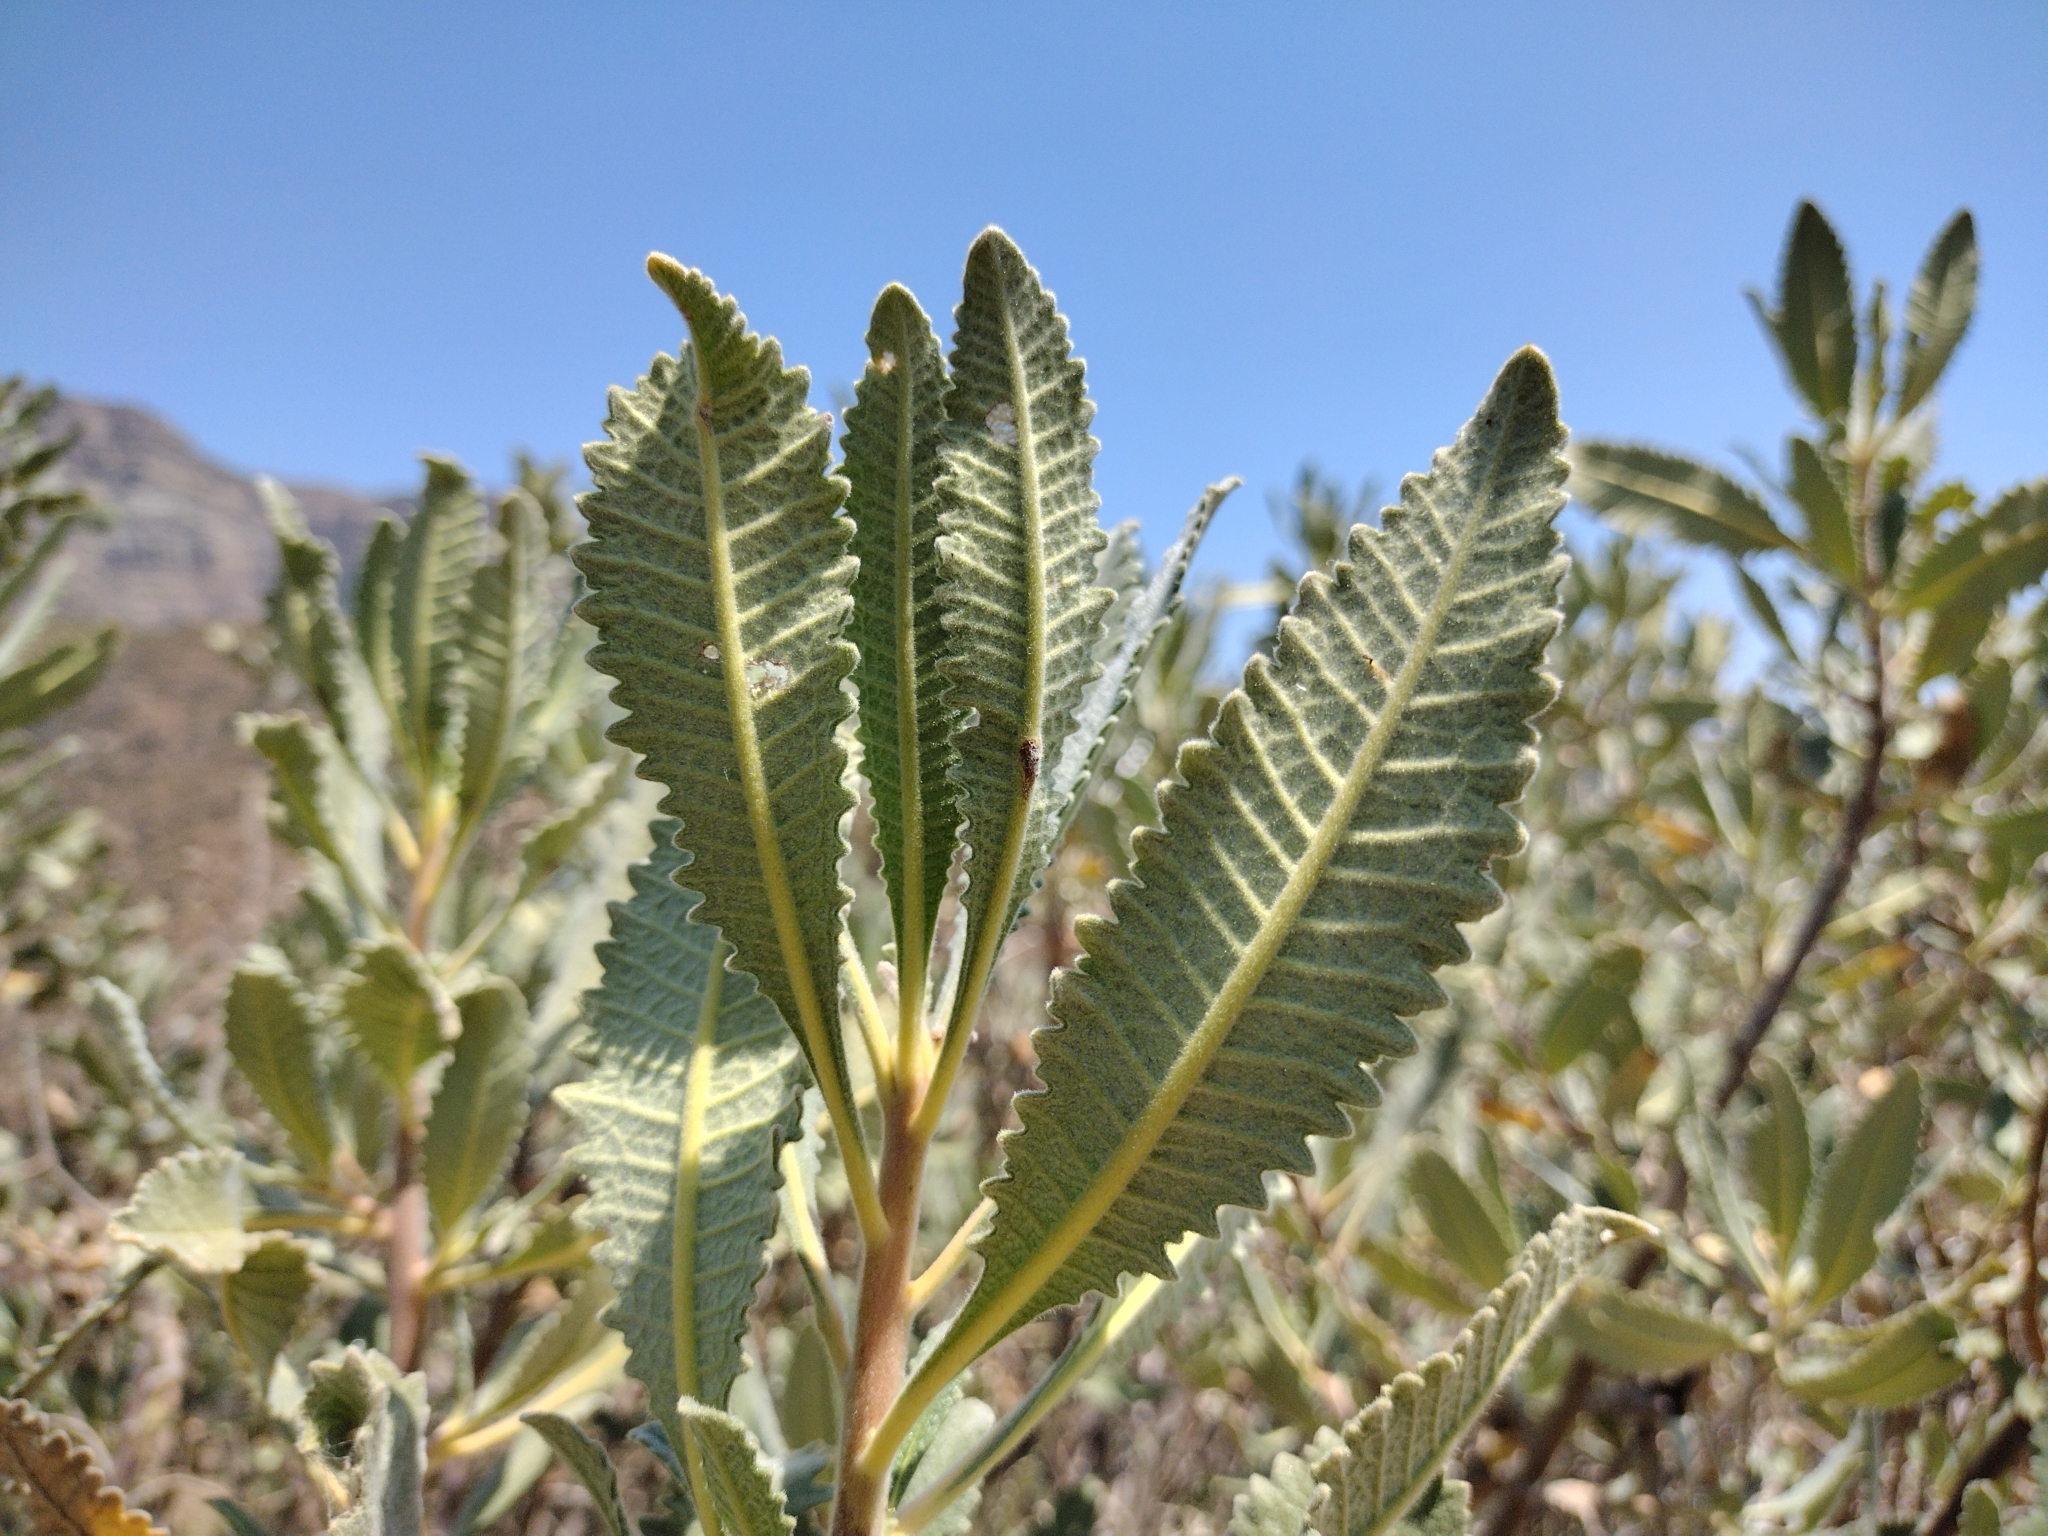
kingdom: Plantae
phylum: Tracheophyta
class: Magnoliopsida
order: Boraginales
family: Namaceae
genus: Eriodictyon
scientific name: Eriodictyon crassifolium
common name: Thick-leaf yerba-santa
